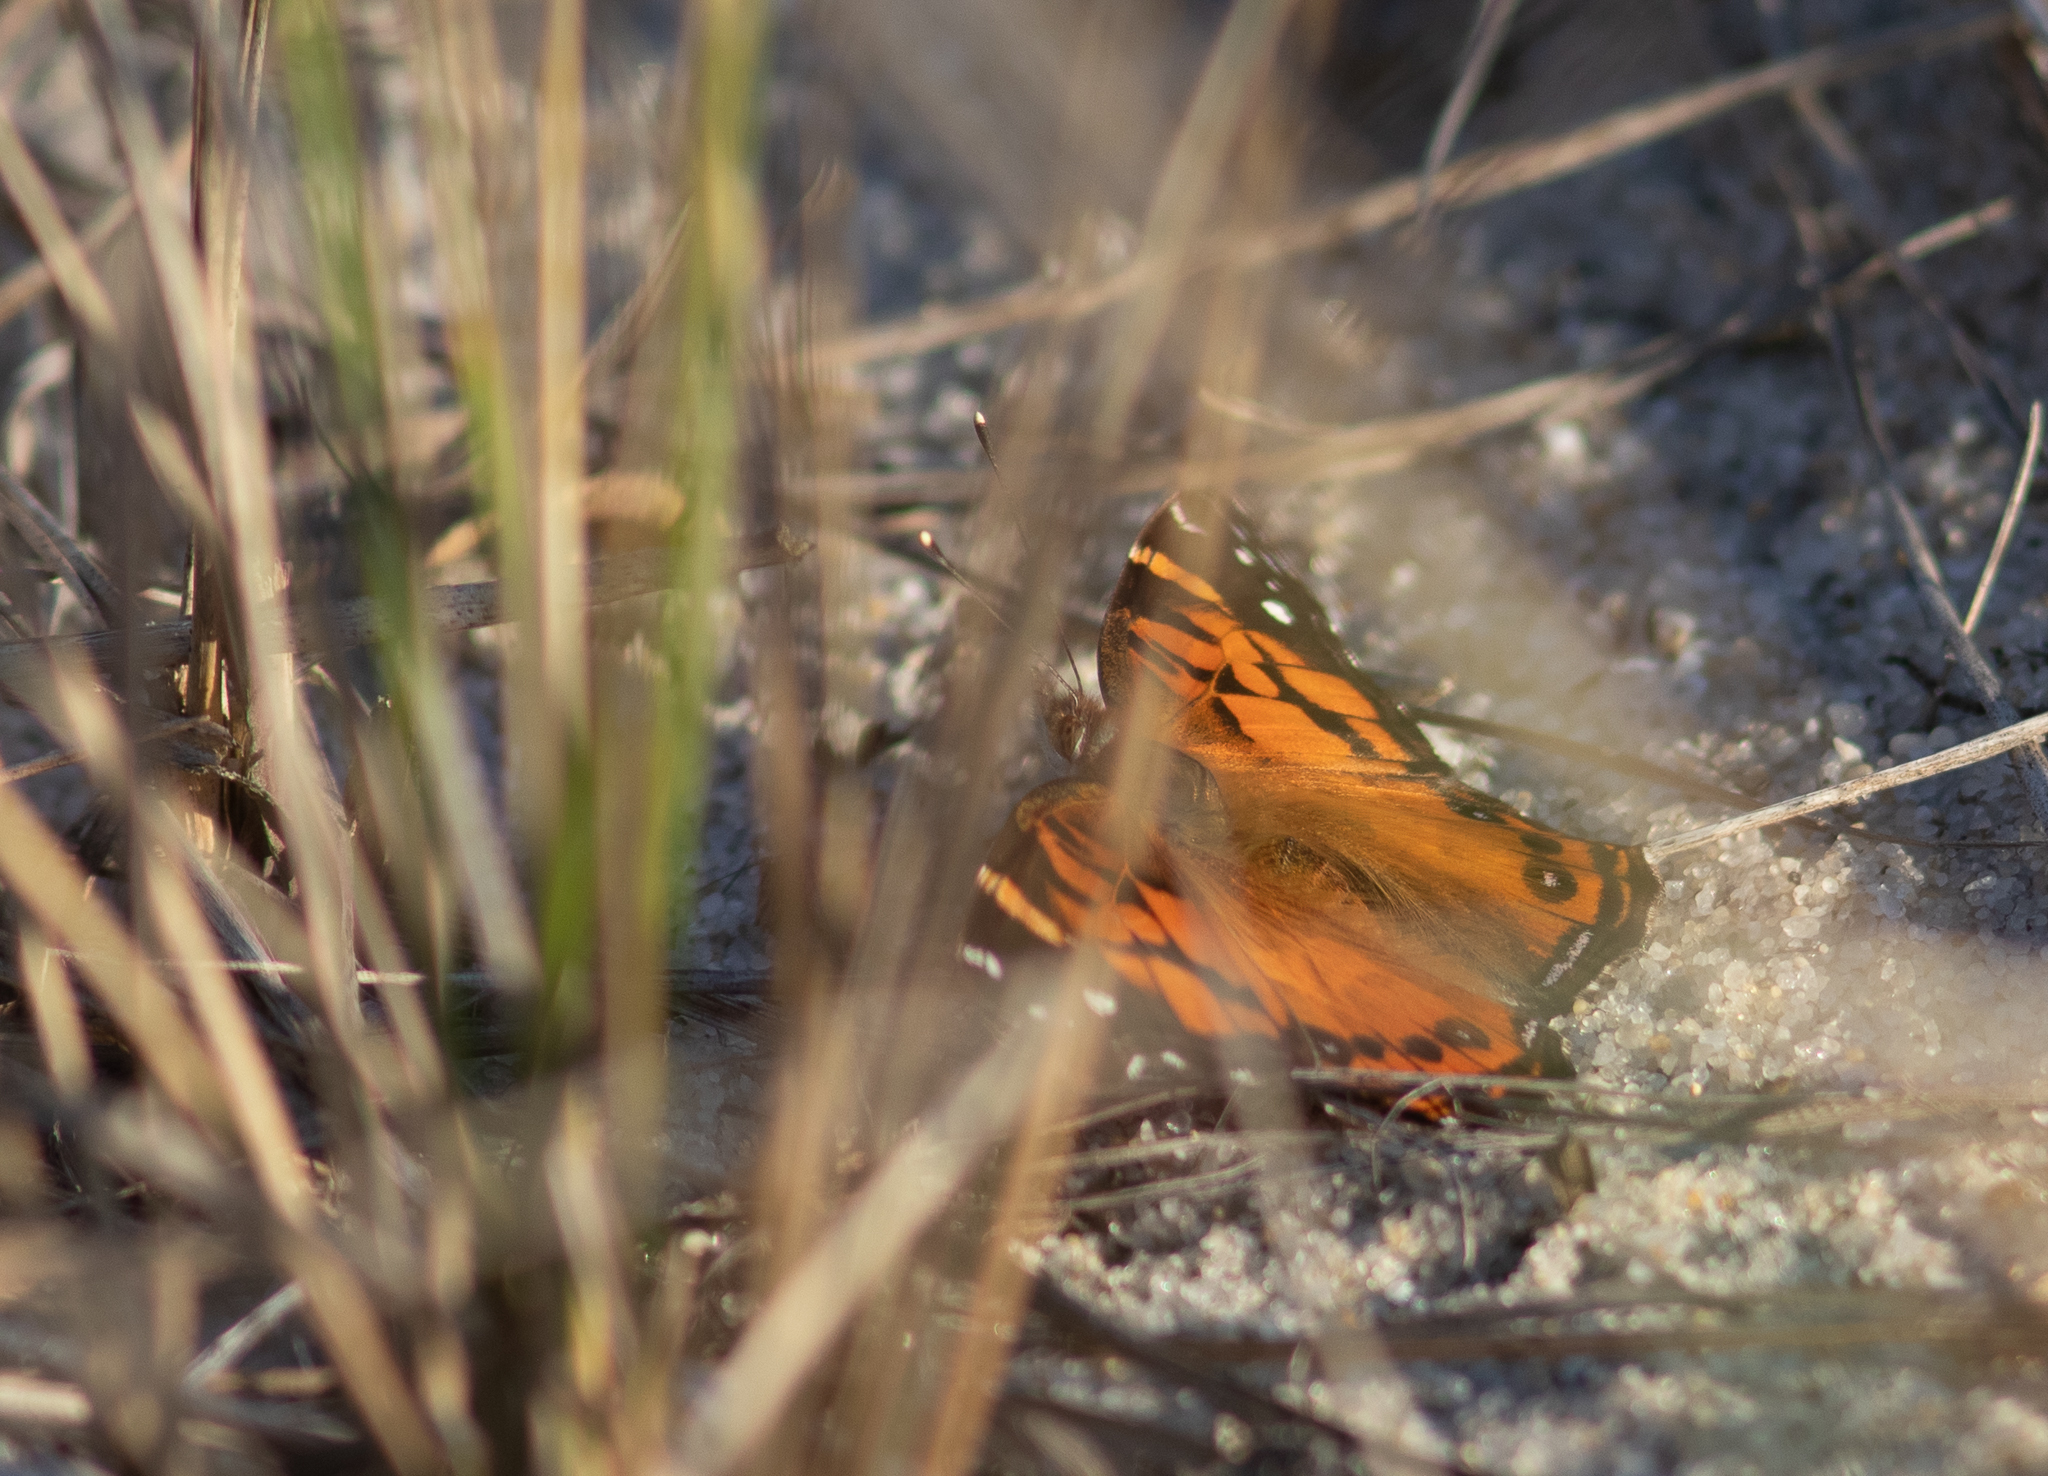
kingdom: Animalia
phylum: Arthropoda
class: Insecta
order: Lepidoptera
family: Nymphalidae
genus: Vanessa
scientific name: Vanessa virginiensis
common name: American lady
